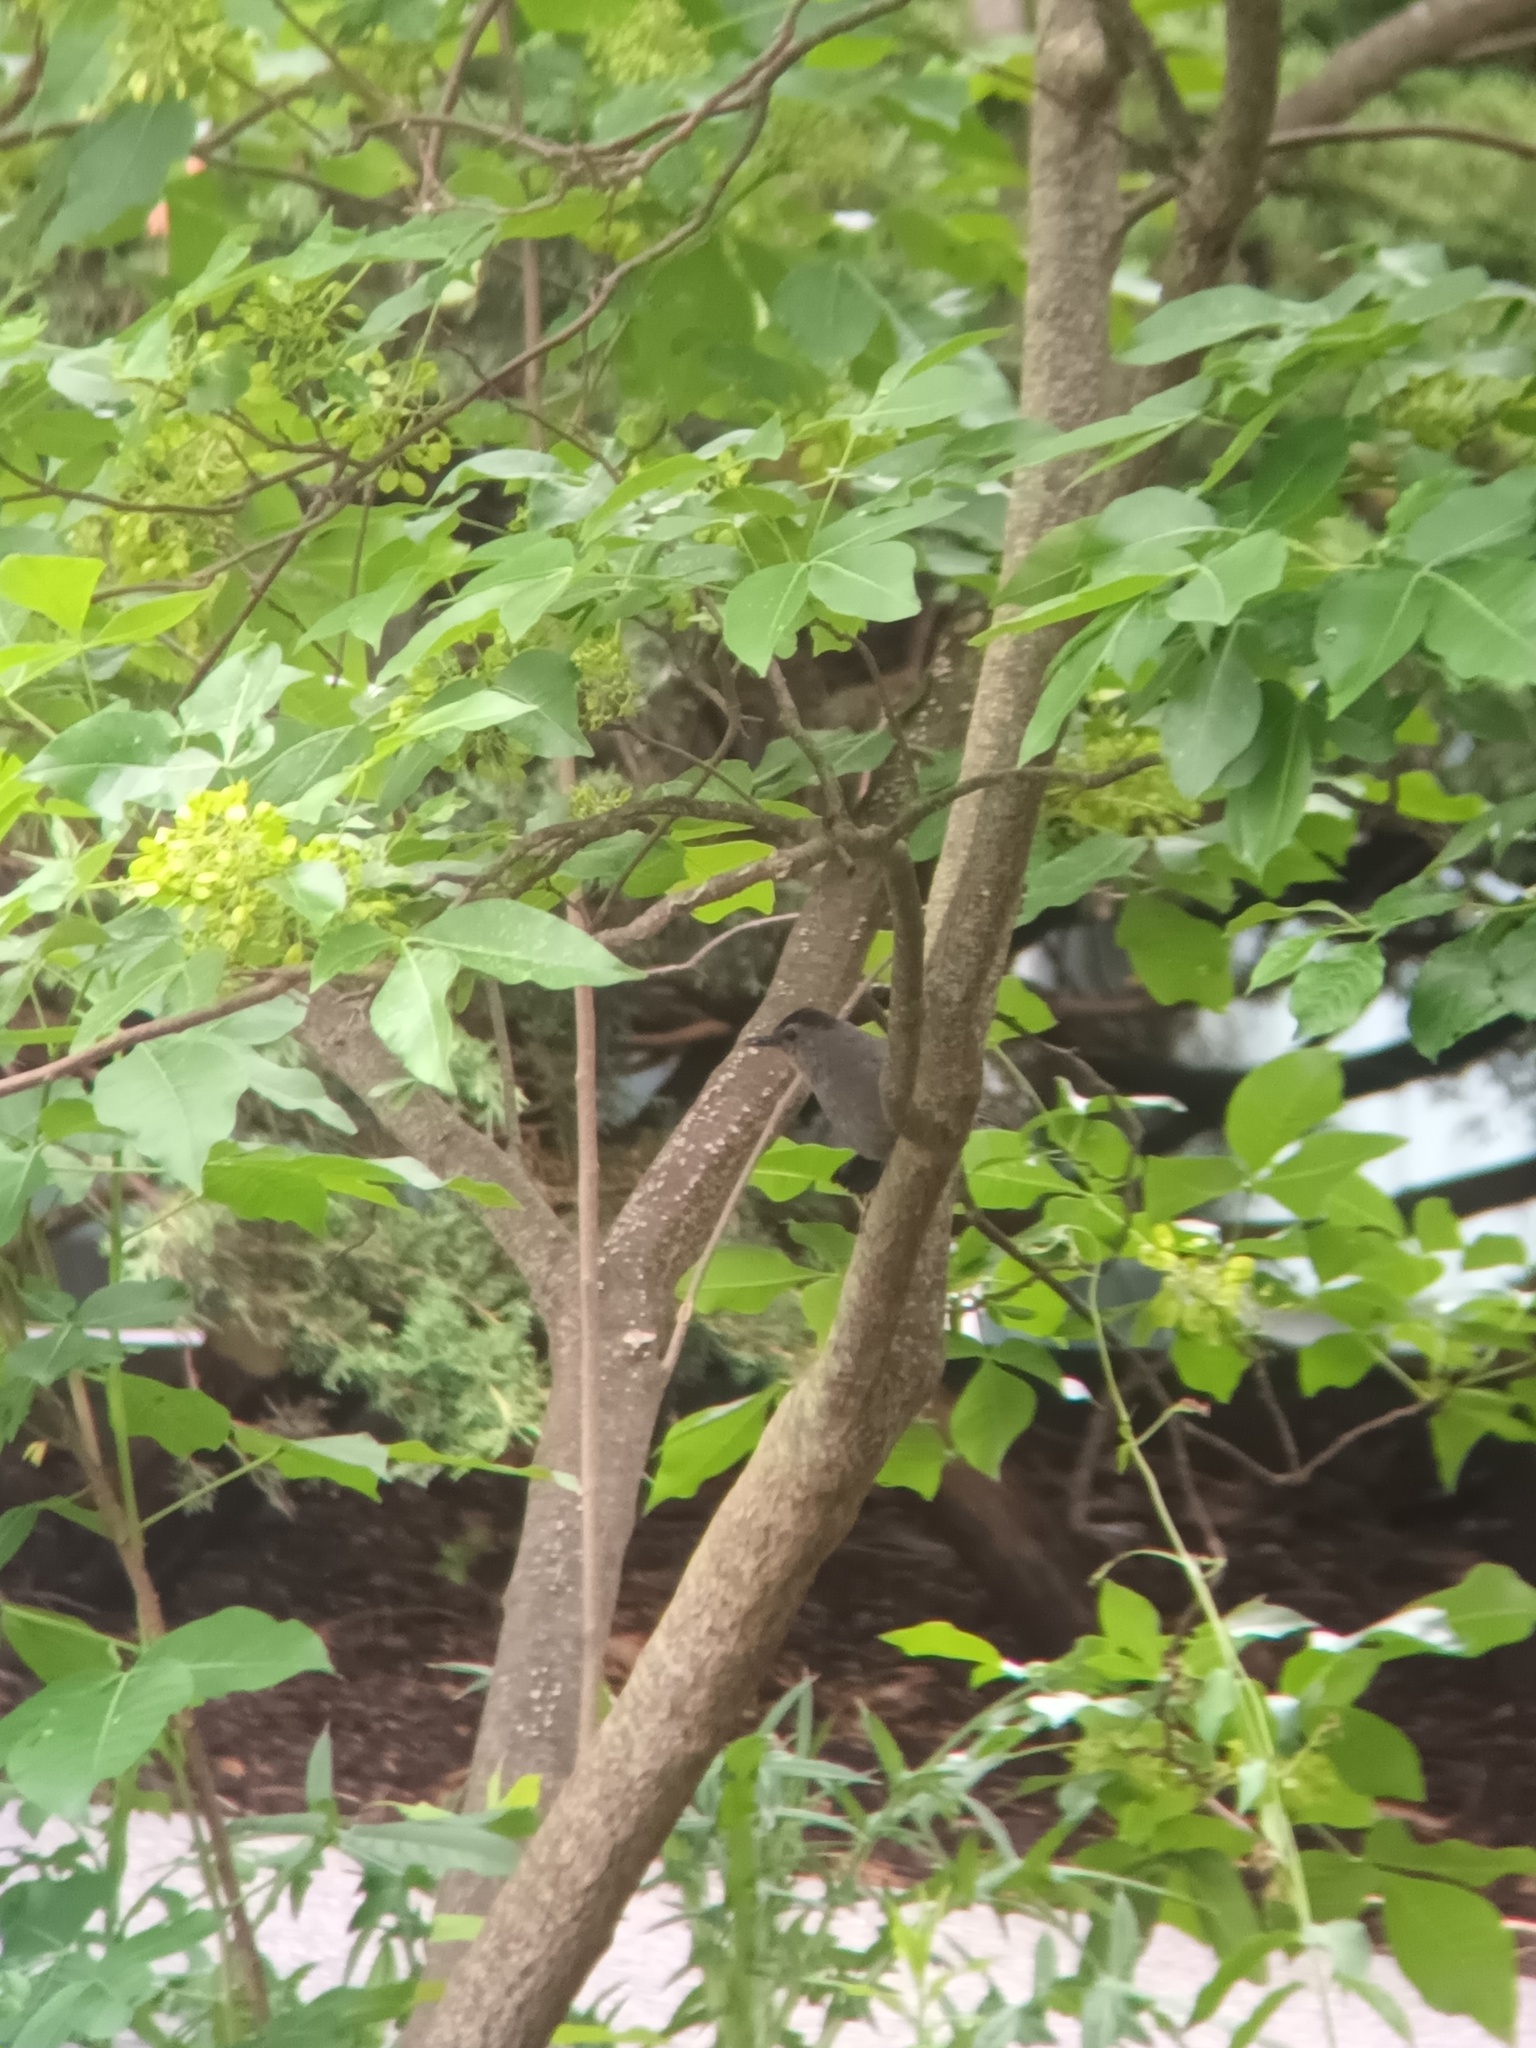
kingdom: Animalia
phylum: Chordata
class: Aves
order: Passeriformes
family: Mimidae
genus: Dumetella
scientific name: Dumetella carolinensis
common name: Gray catbird
